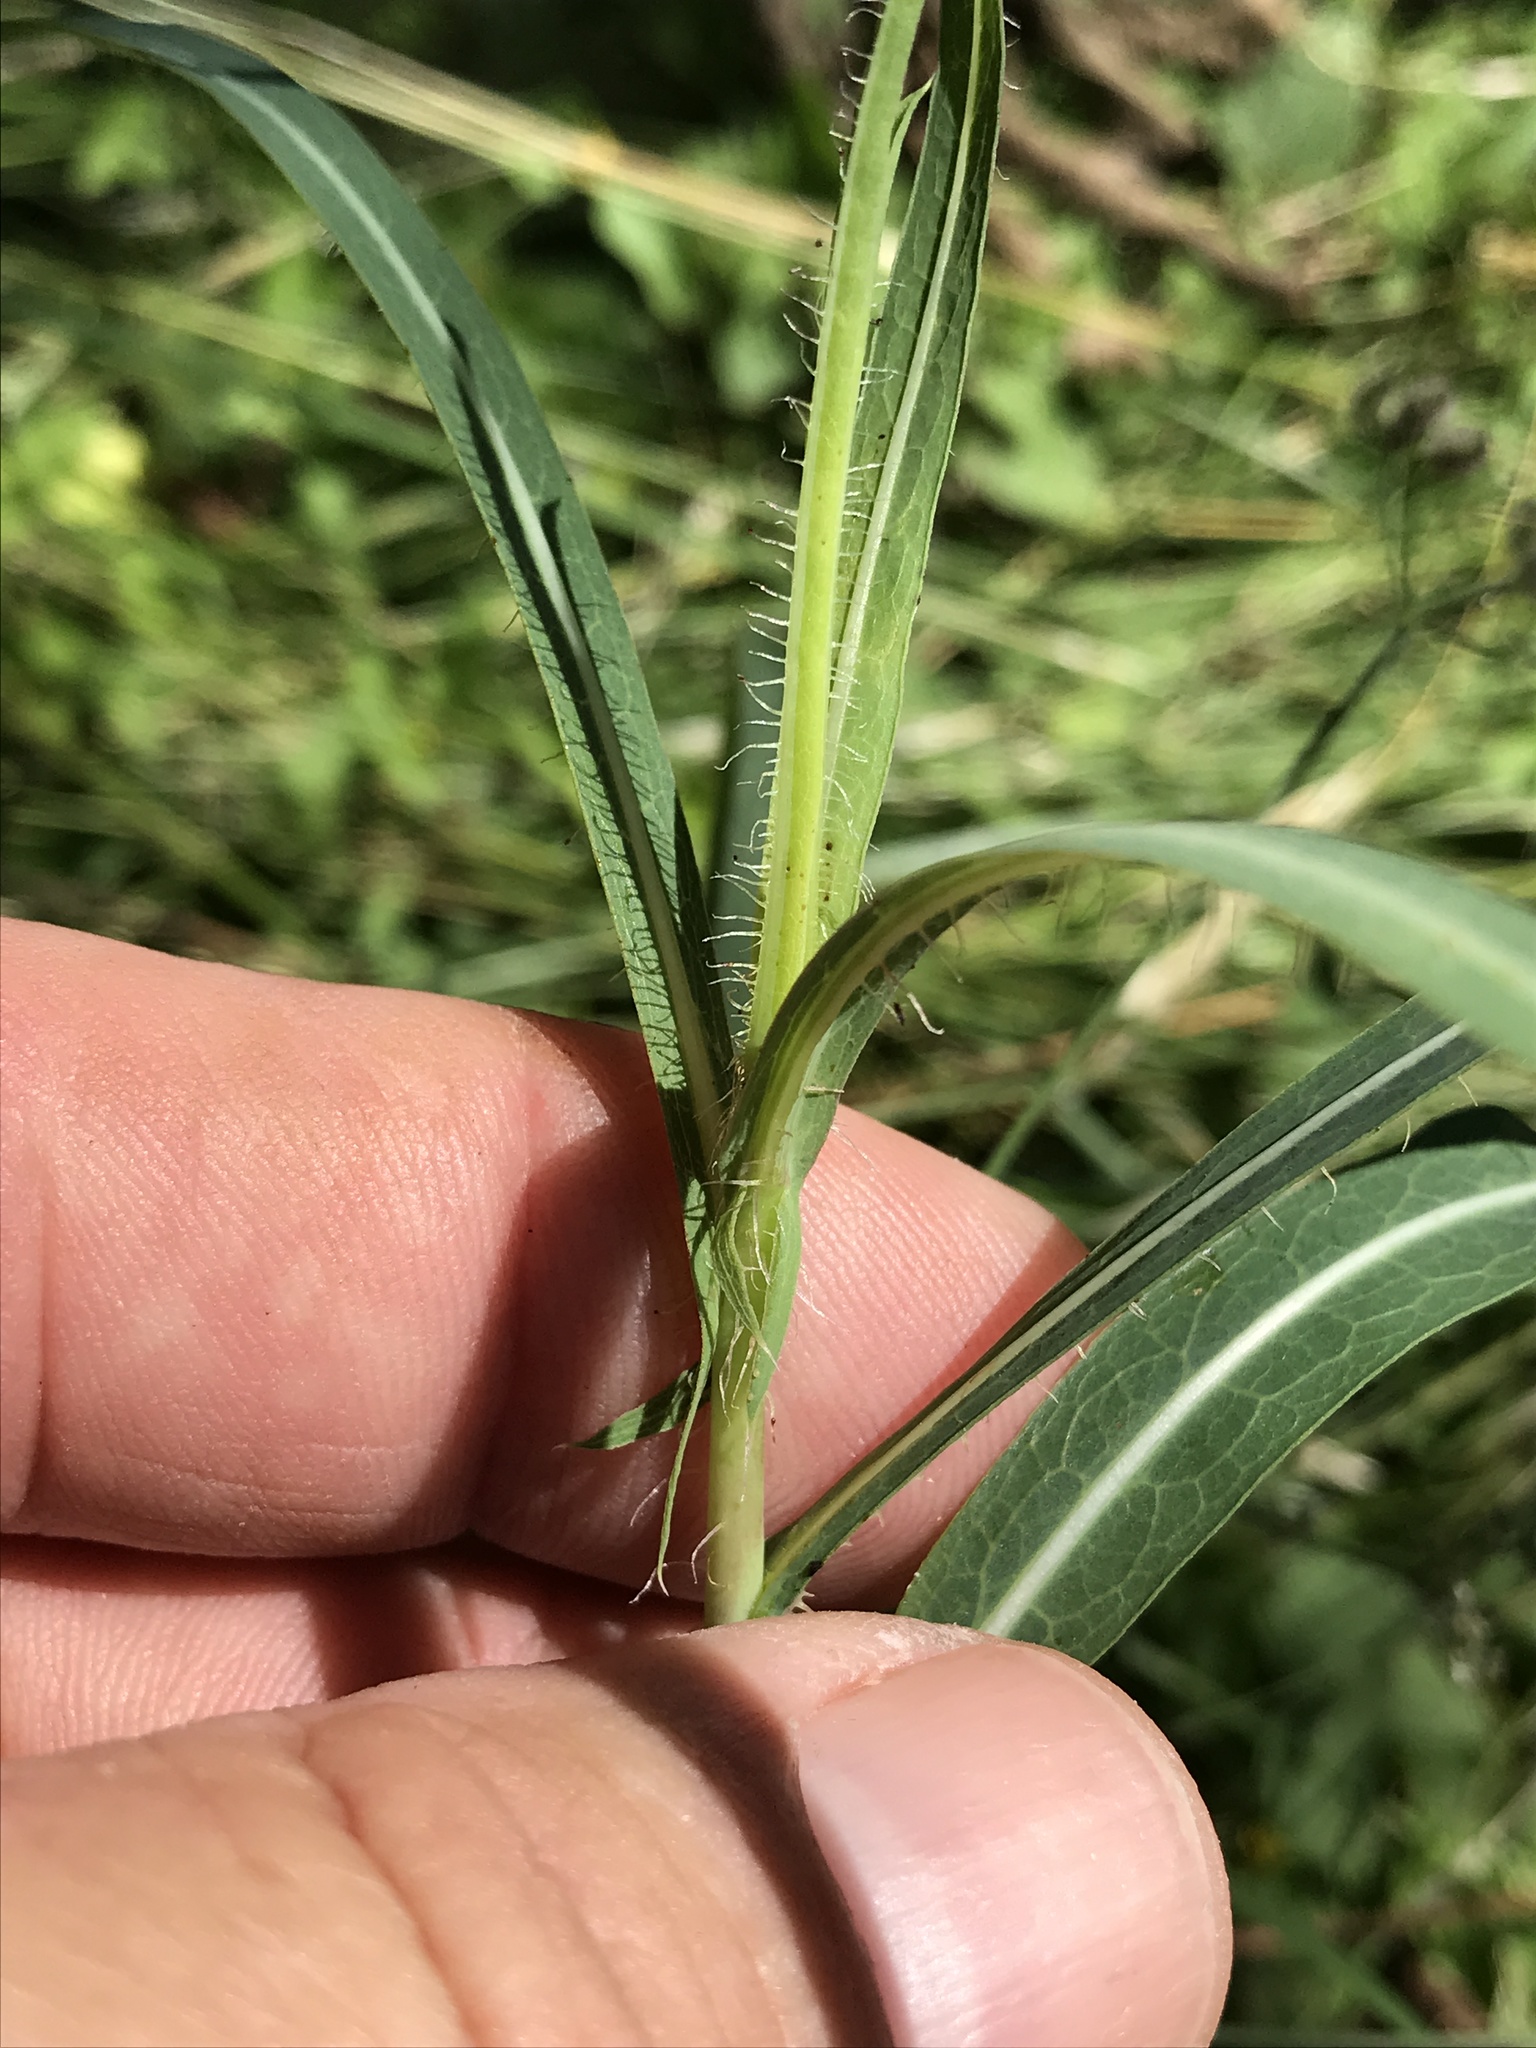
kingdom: Plantae
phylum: Tracheophyta
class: Magnoliopsida
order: Asterales
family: Asteraceae
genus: Lactuca
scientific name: Lactuca saligna
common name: Wild lettuce
